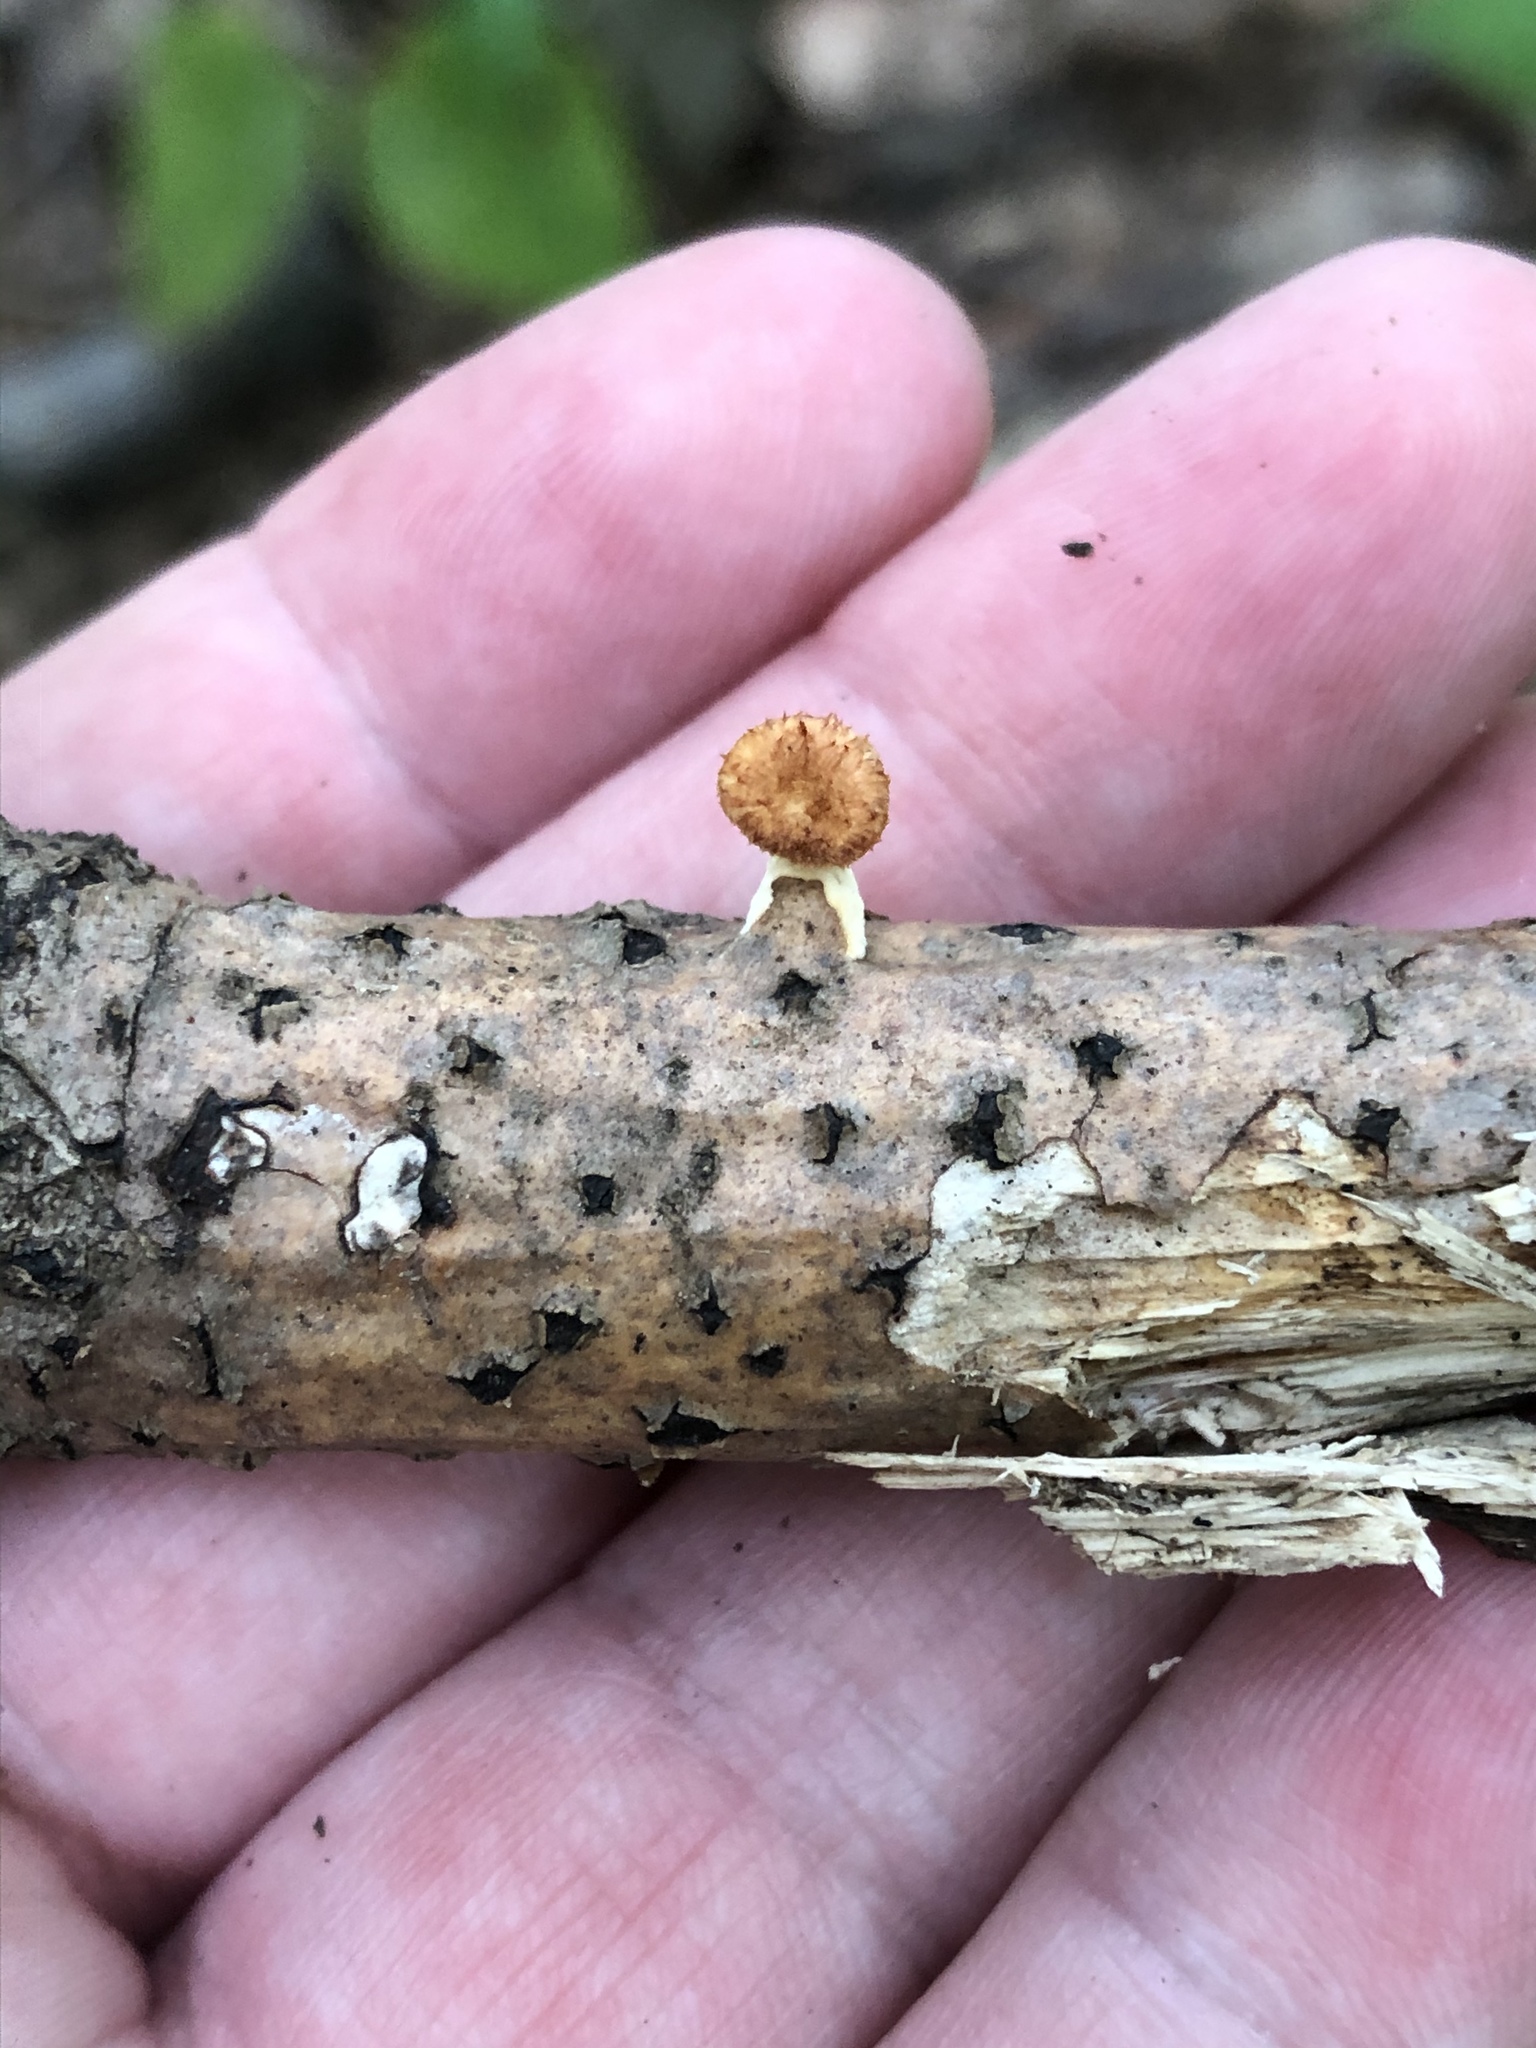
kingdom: Fungi
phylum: Basidiomycota
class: Agaricomycetes
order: Polyporales
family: Polyporaceae
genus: Neofavolus
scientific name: Neofavolus alveolaris
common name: Hexagonal-pored polypore
